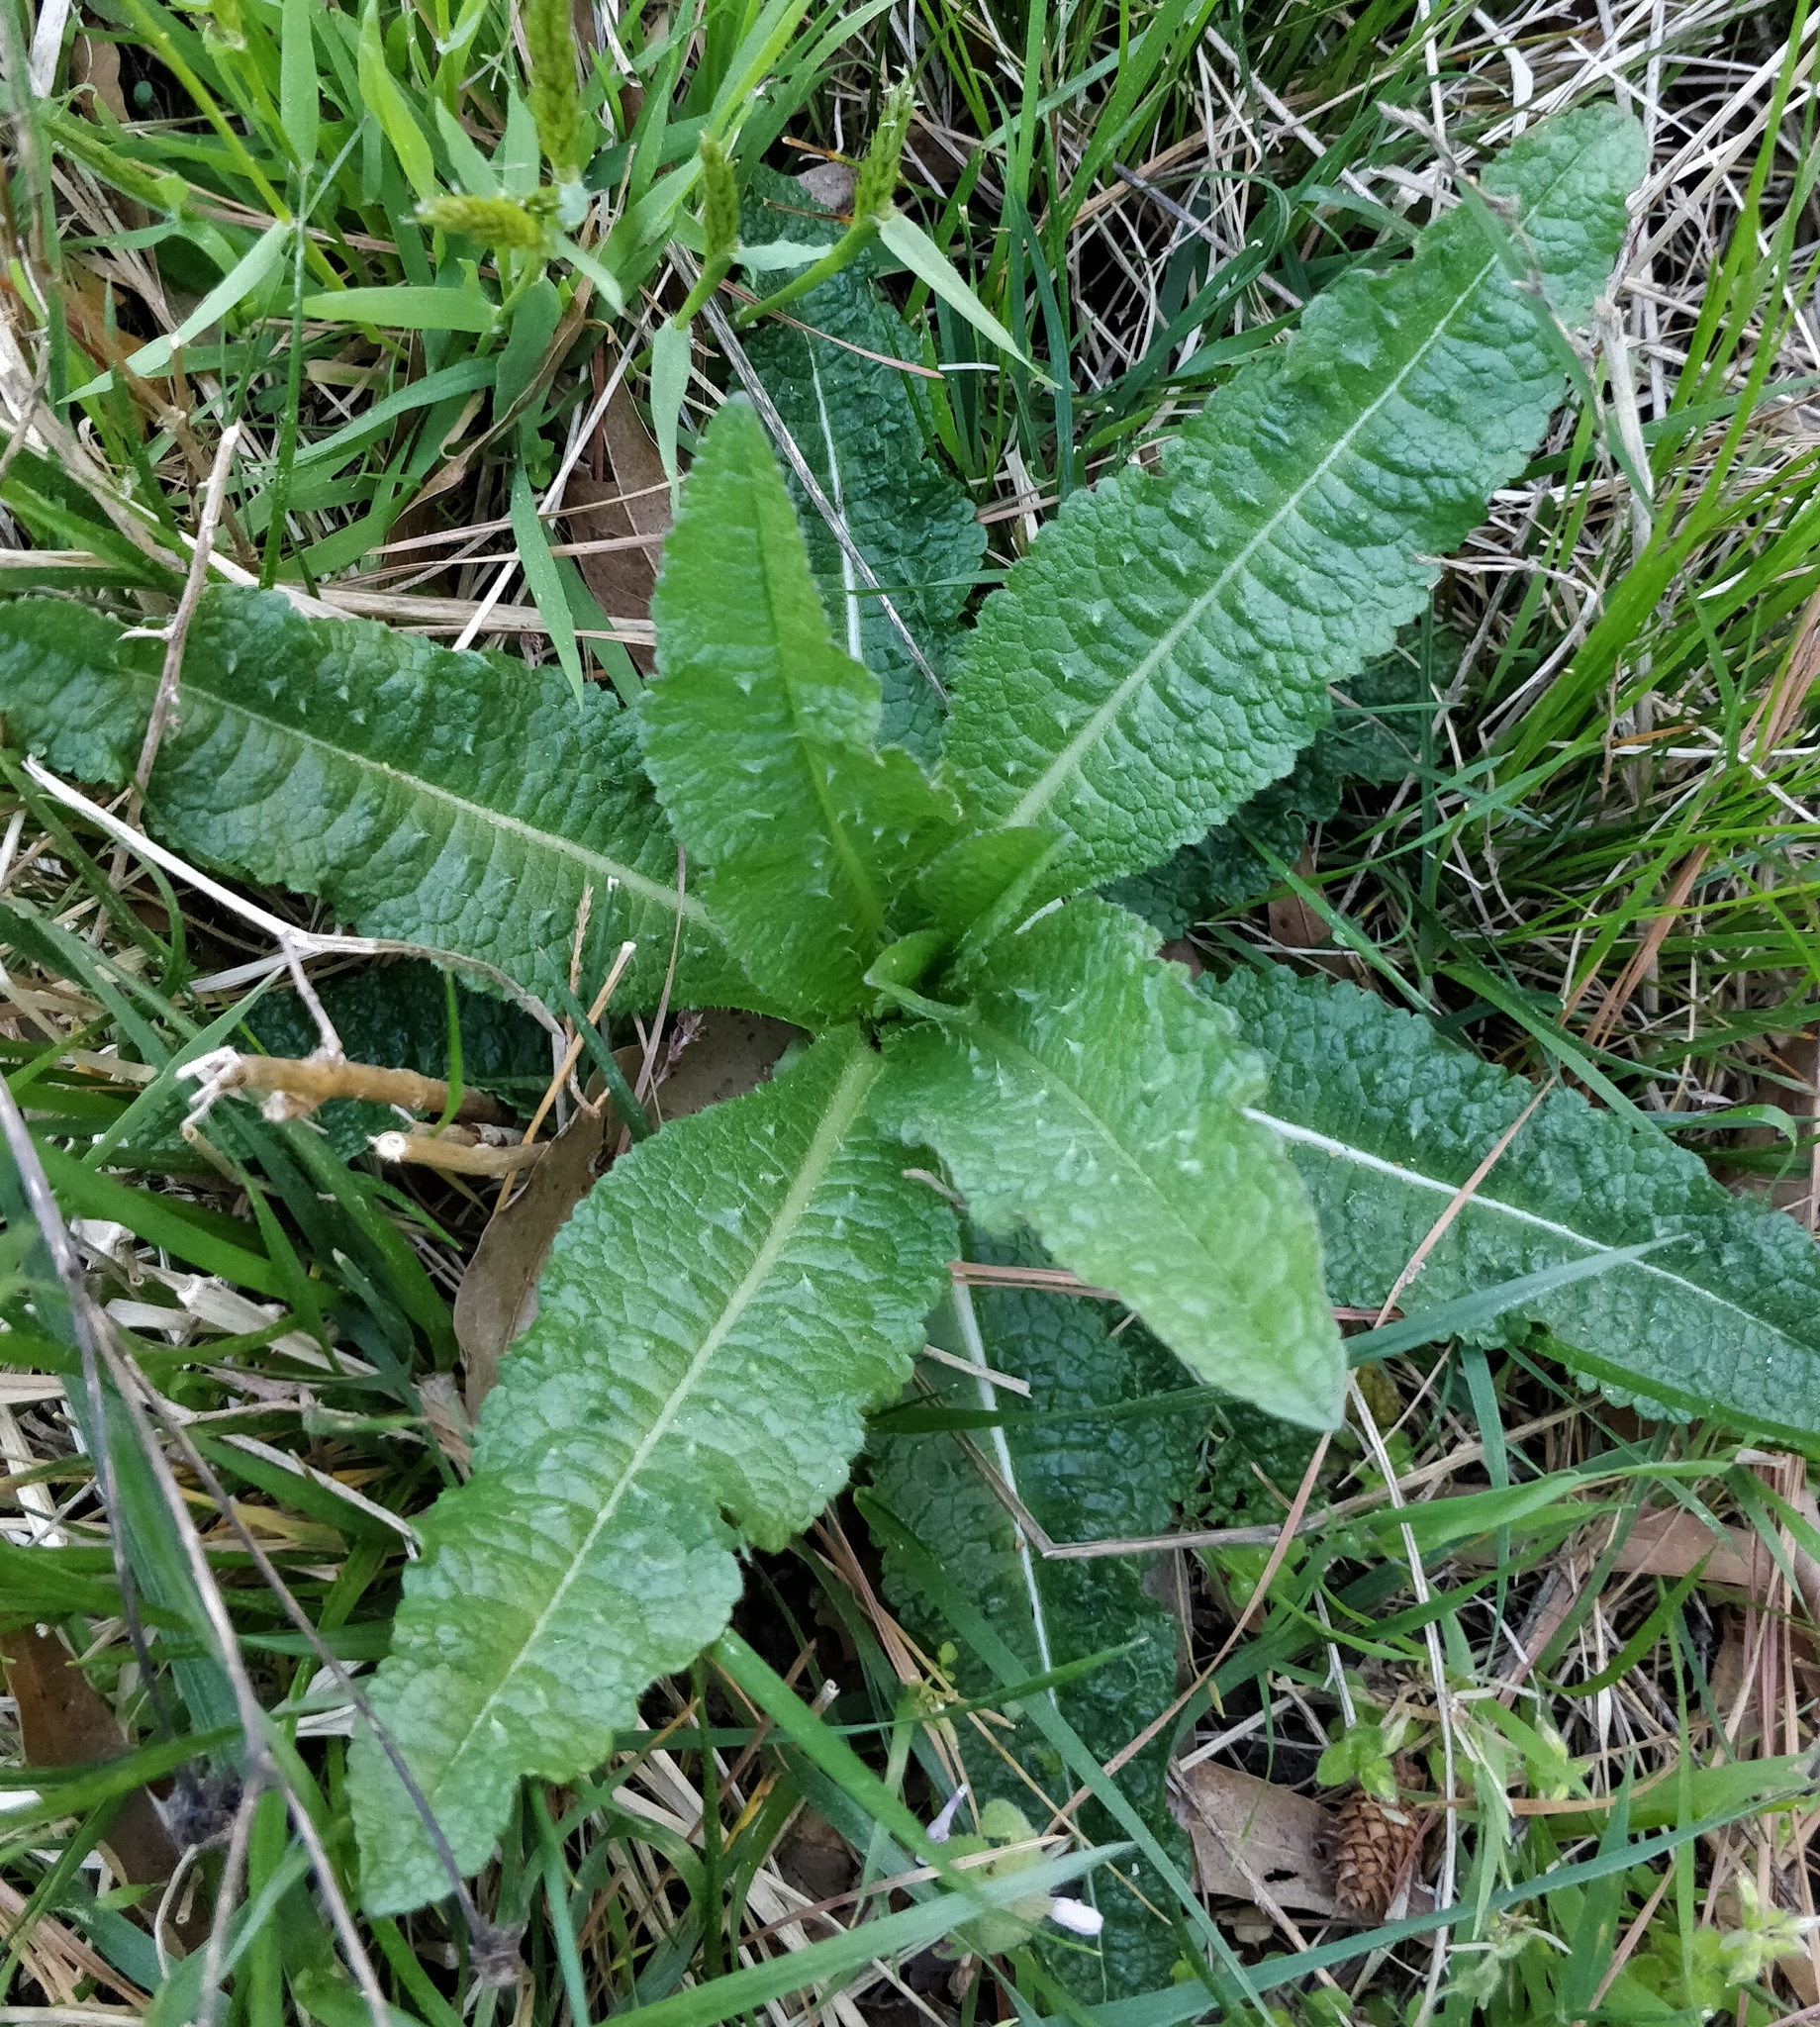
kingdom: Plantae
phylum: Tracheophyta
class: Magnoliopsida
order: Dipsacales
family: Caprifoliaceae
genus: Dipsacus
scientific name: Dipsacus fullonum
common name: Teasel
